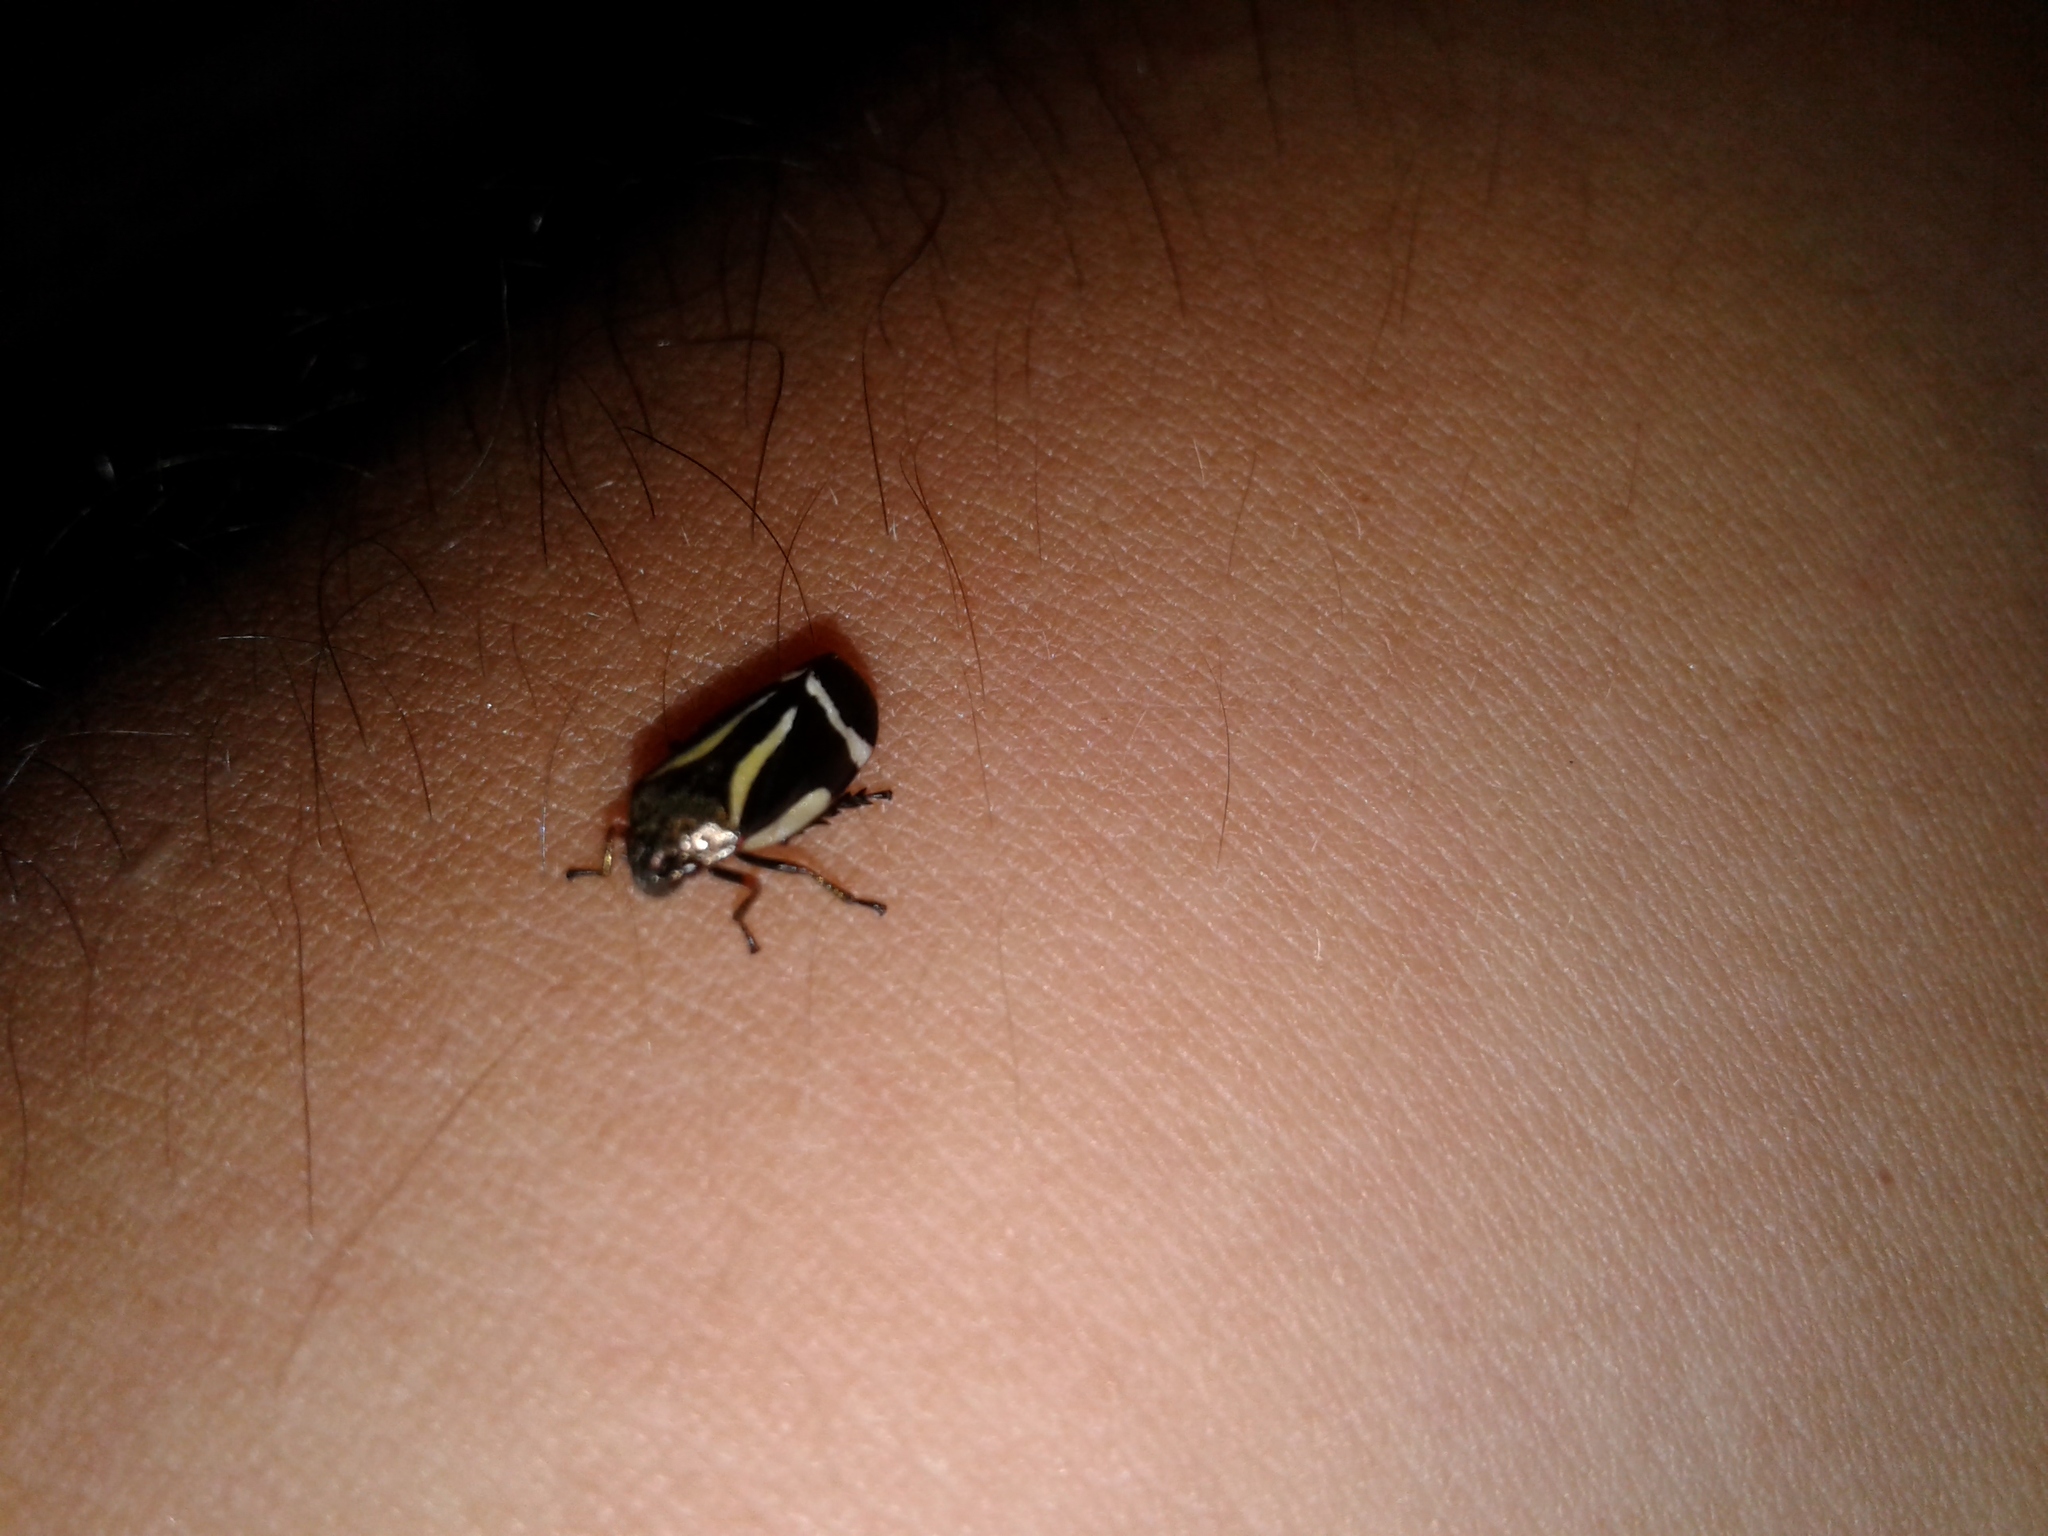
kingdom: Animalia
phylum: Arthropoda
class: Insecta
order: Hemiptera
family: Cercopidae
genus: Notozulia
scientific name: Notozulia entreriana
